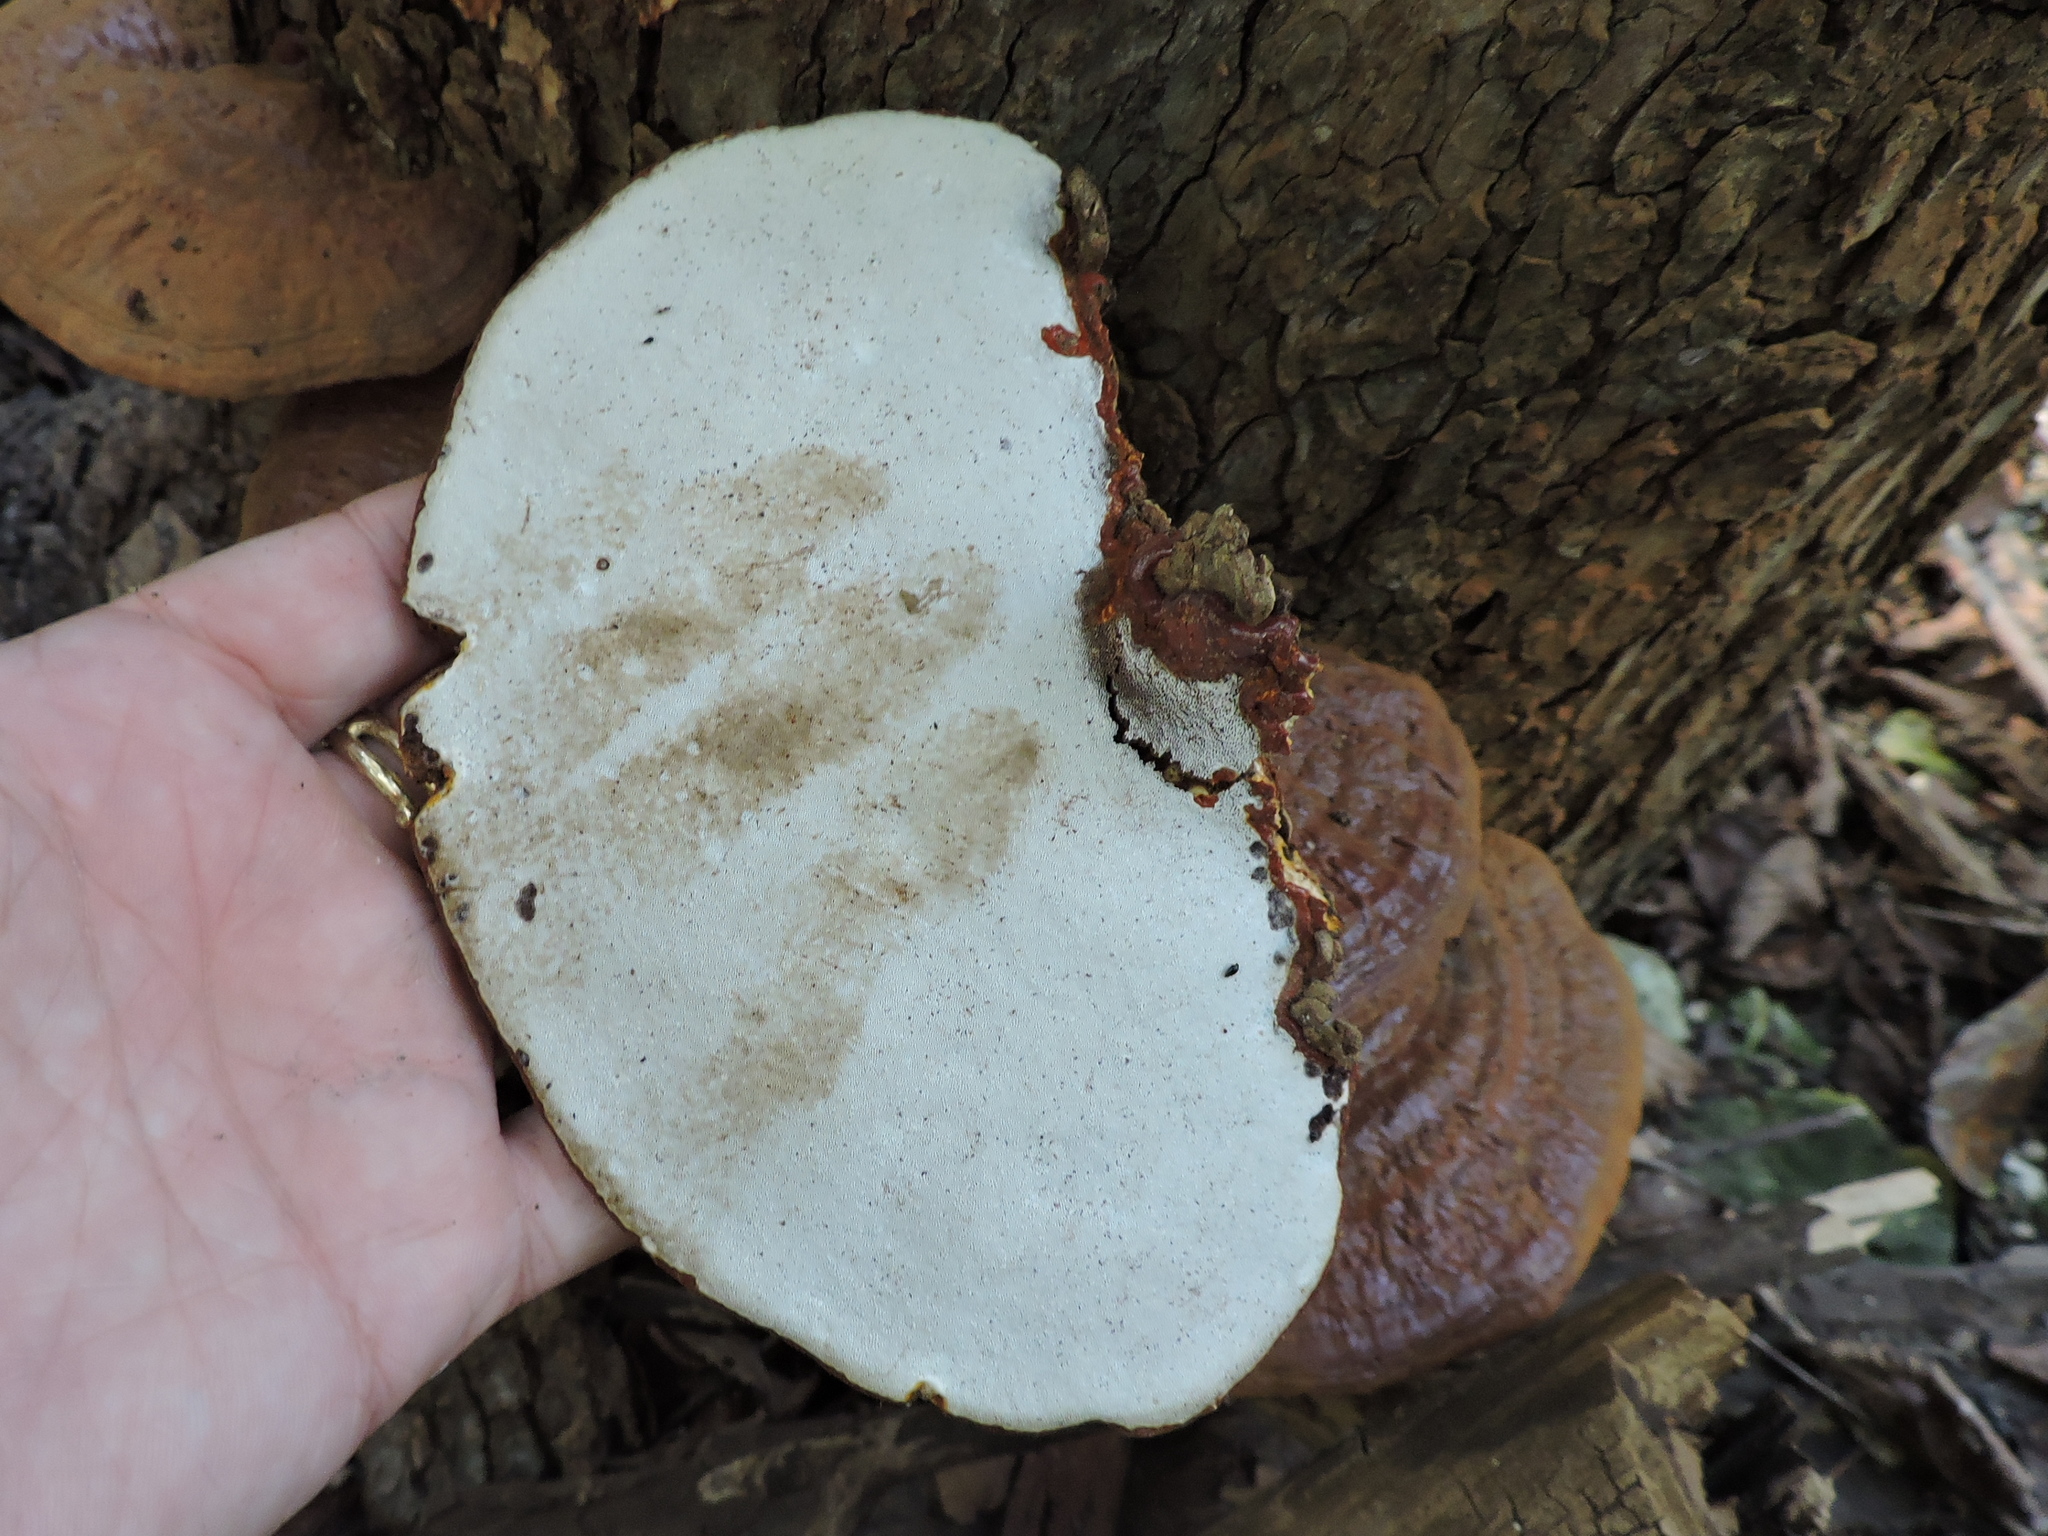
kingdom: Fungi
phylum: Basidiomycota
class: Agaricomycetes
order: Polyporales
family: Polyporaceae
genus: Ganoderma
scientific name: Ganoderma resinaceum
